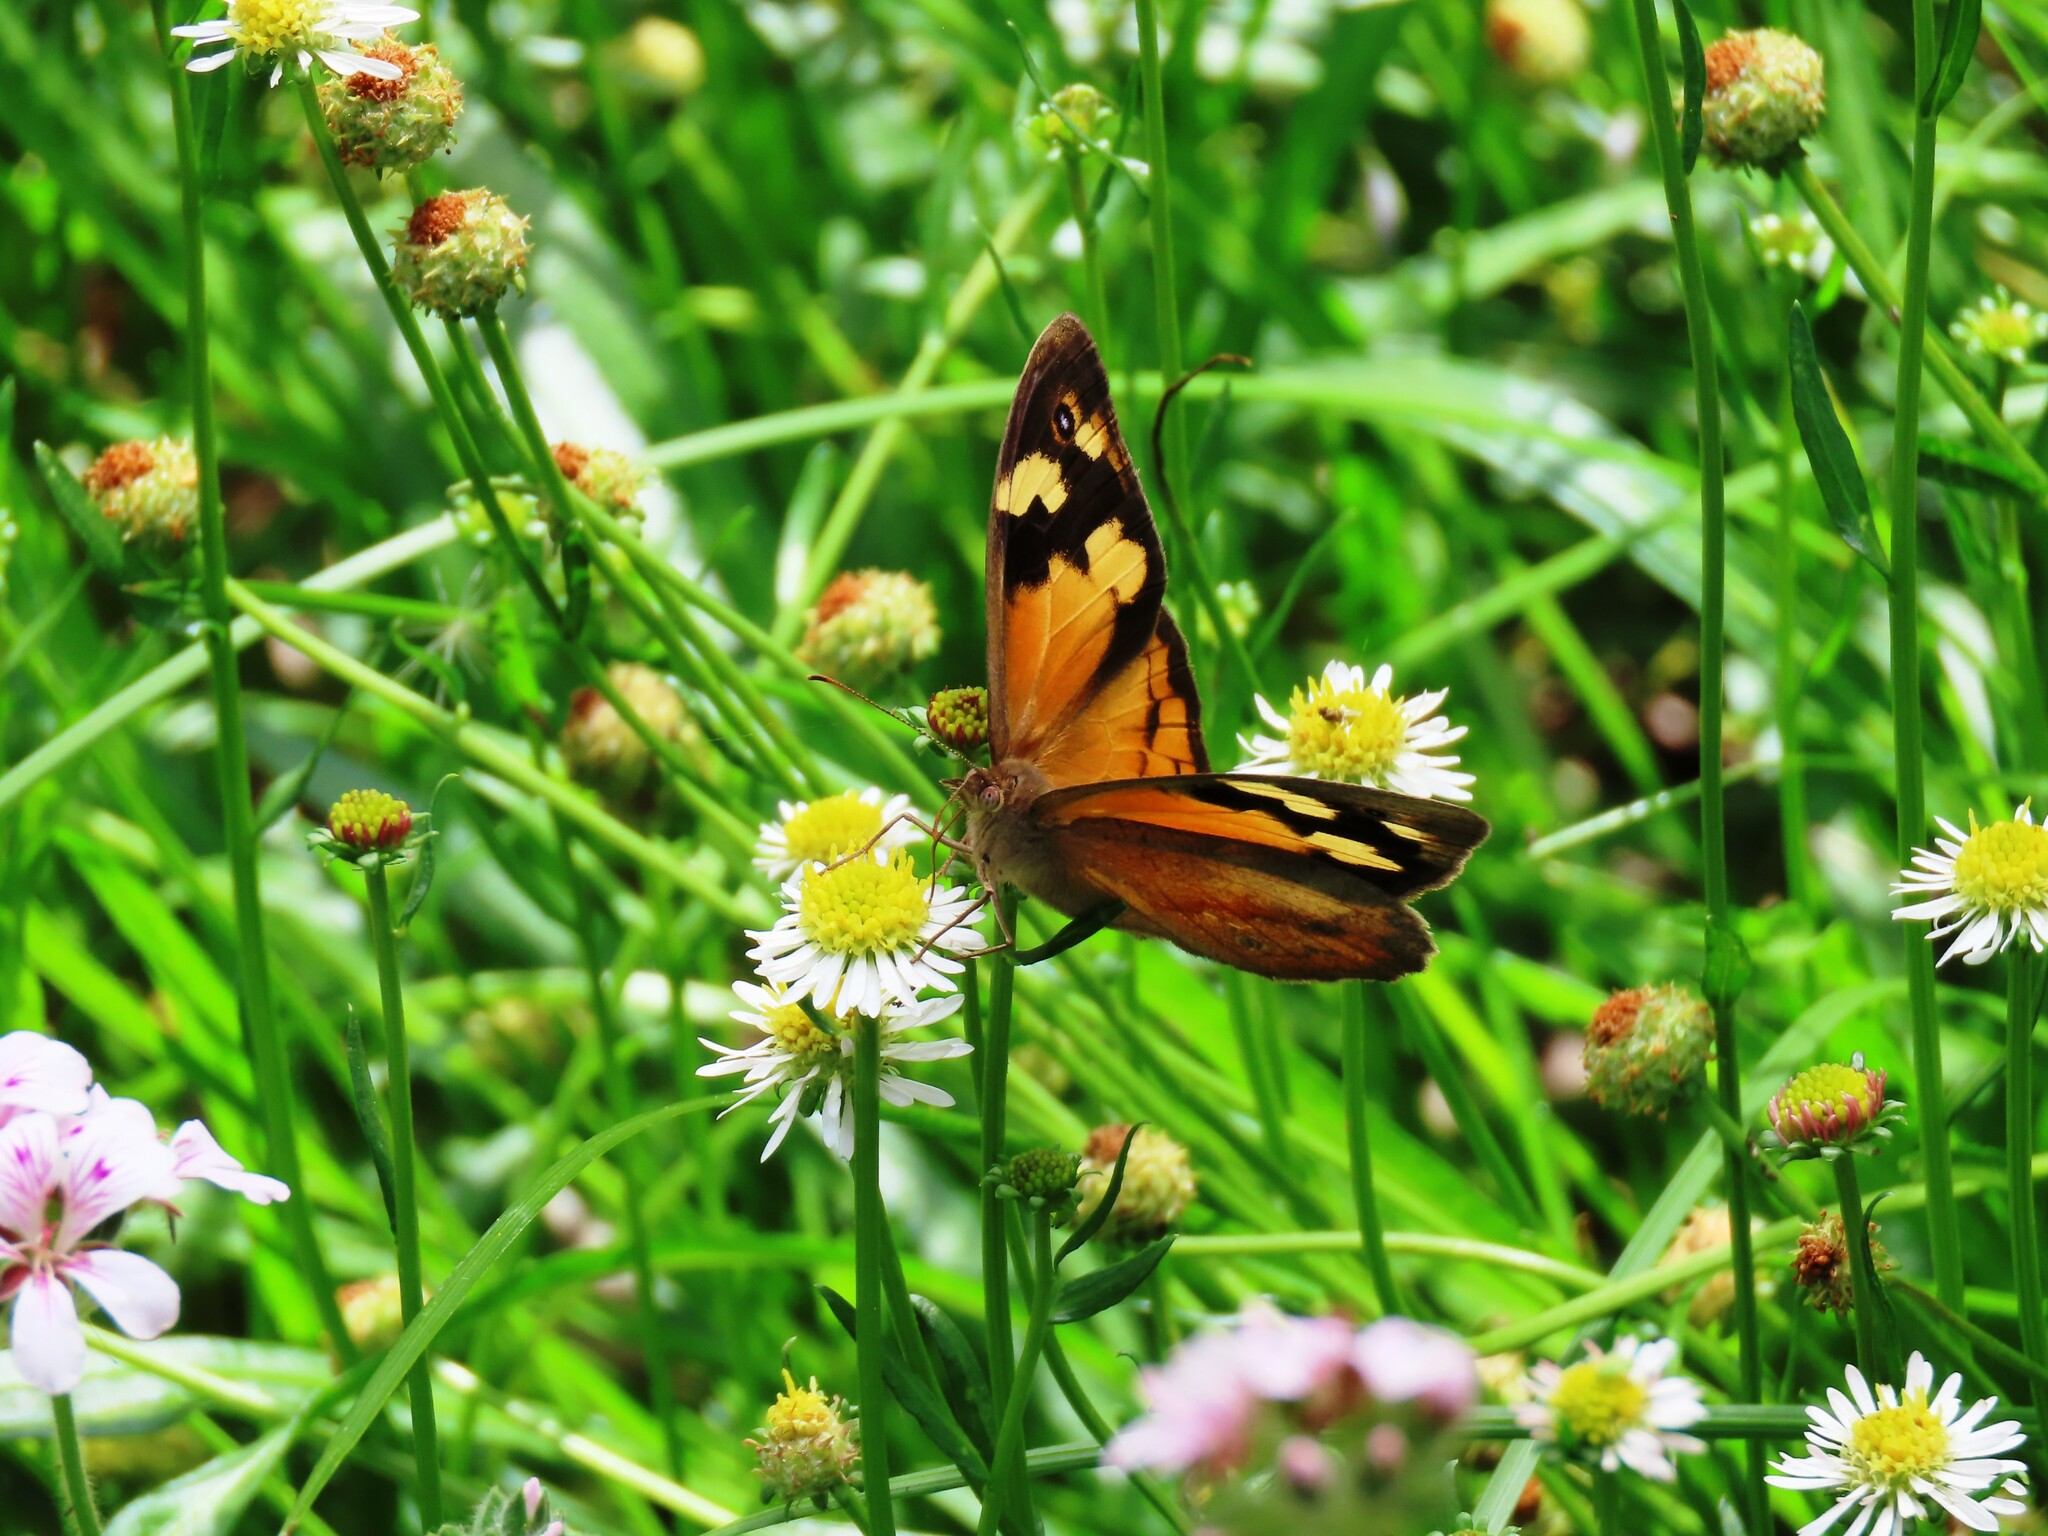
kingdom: Animalia
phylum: Arthropoda
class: Insecta
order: Lepidoptera
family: Nymphalidae
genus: Heteronympha
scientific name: Heteronympha merope
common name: Common brown
